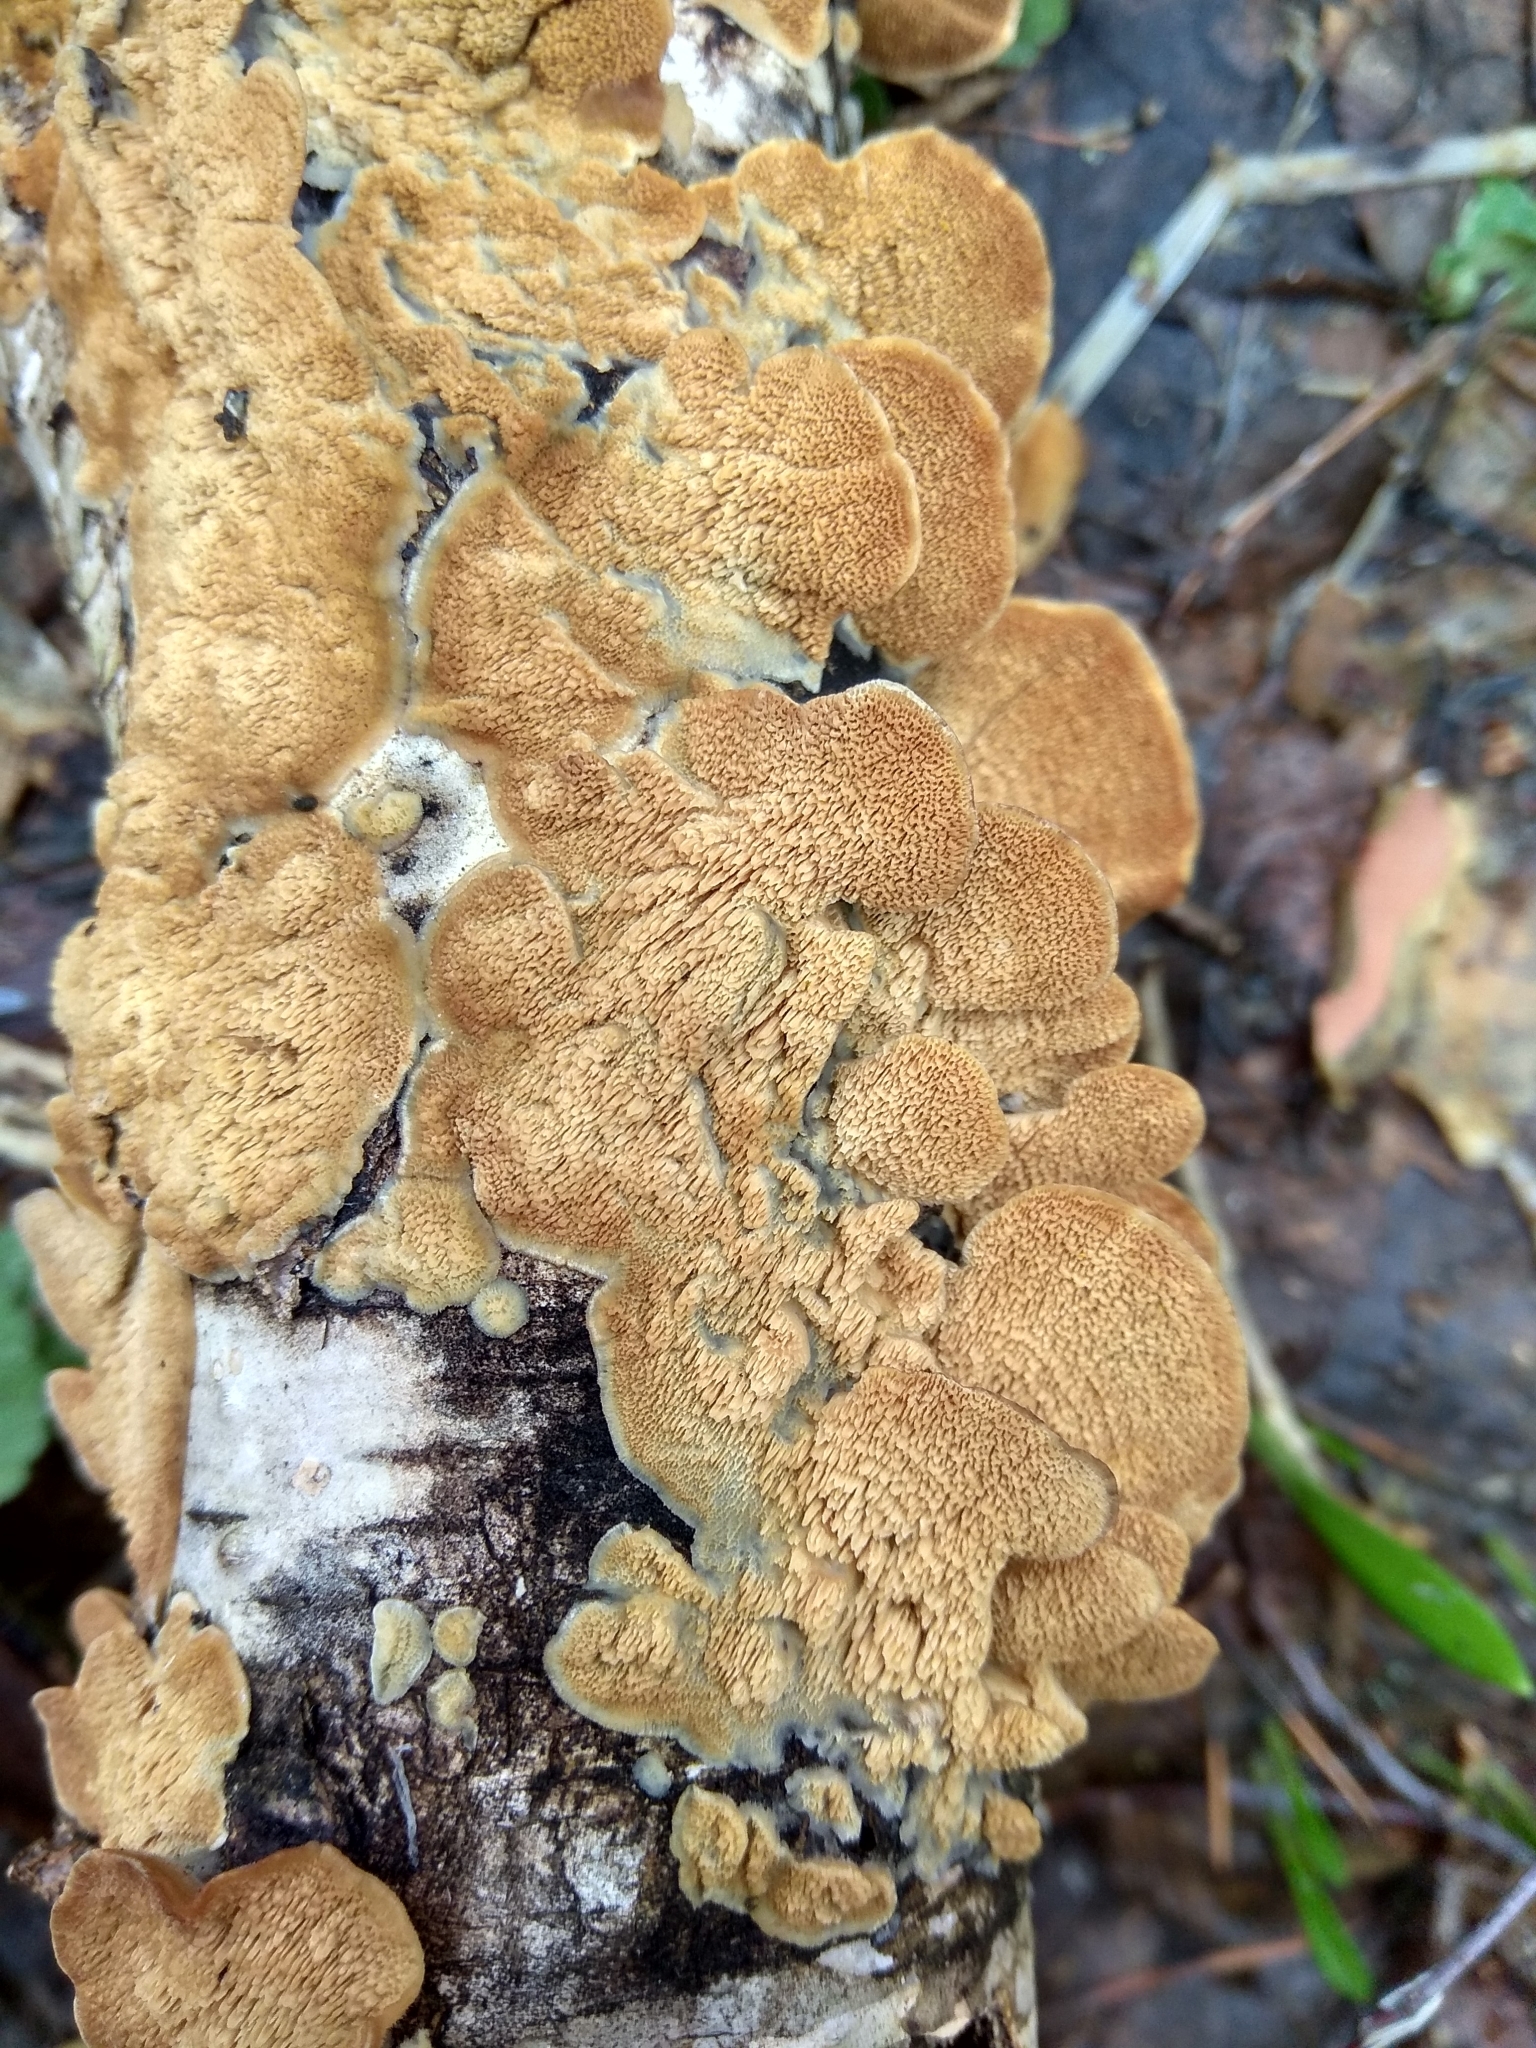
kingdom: Fungi
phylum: Basidiomycota
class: Agaricomycetes
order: Hymenochaetales
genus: Trichaptum
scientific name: Trichaptum biforme
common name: Violet-toothed polypore
